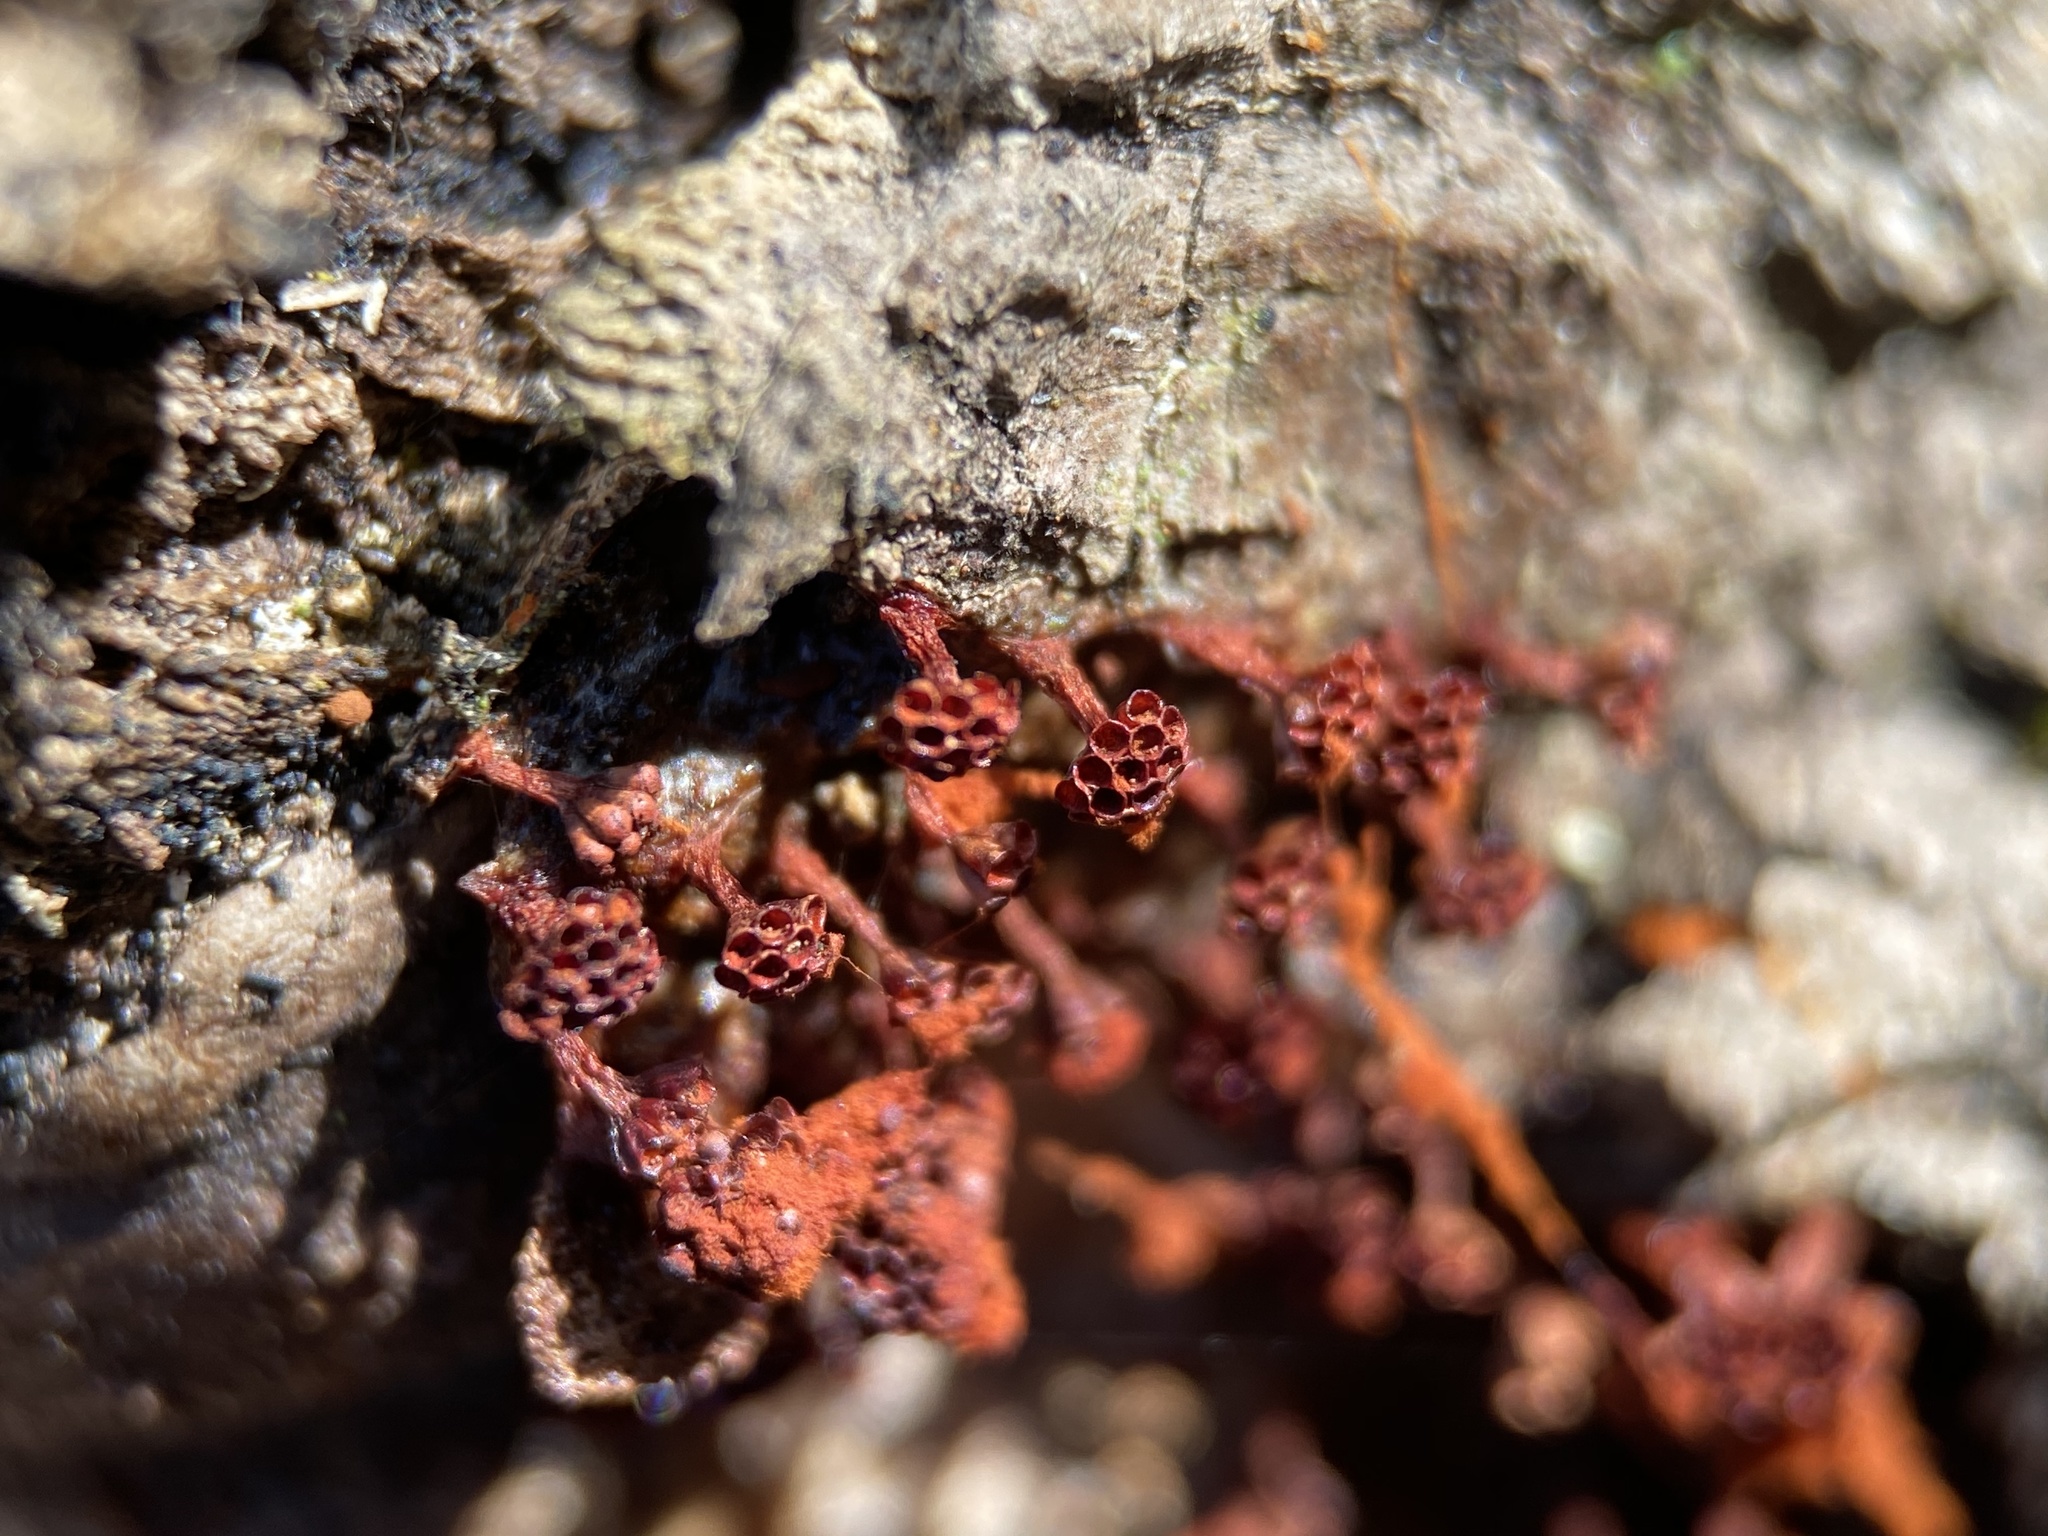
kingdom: Protozoa
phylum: Mycetozoa
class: Myxomycetes
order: Trichiales
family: Trichiaceae
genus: Metatrichia
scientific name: Metatrichia vesparia
